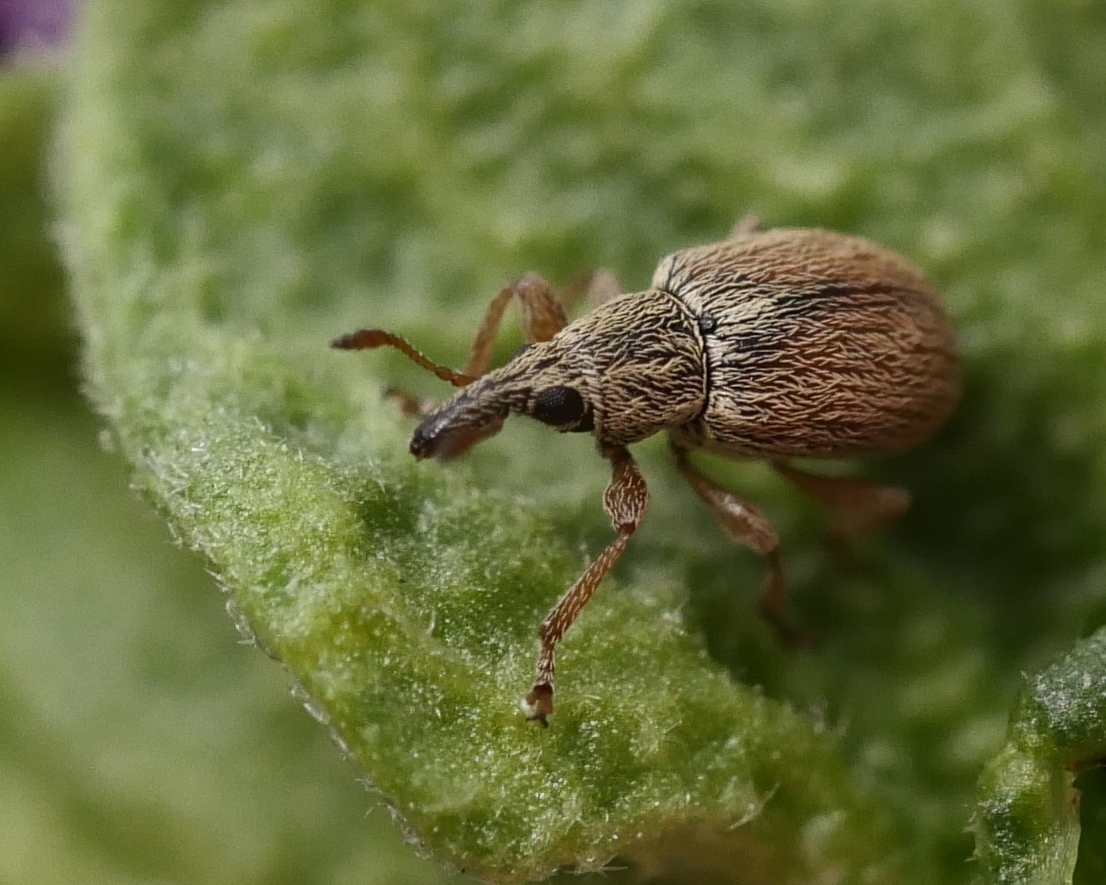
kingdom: Animalia
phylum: Arthropoda
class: Insecta
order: Coleoptera
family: Apionidae
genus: Malvapion
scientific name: Malvapion malvae
